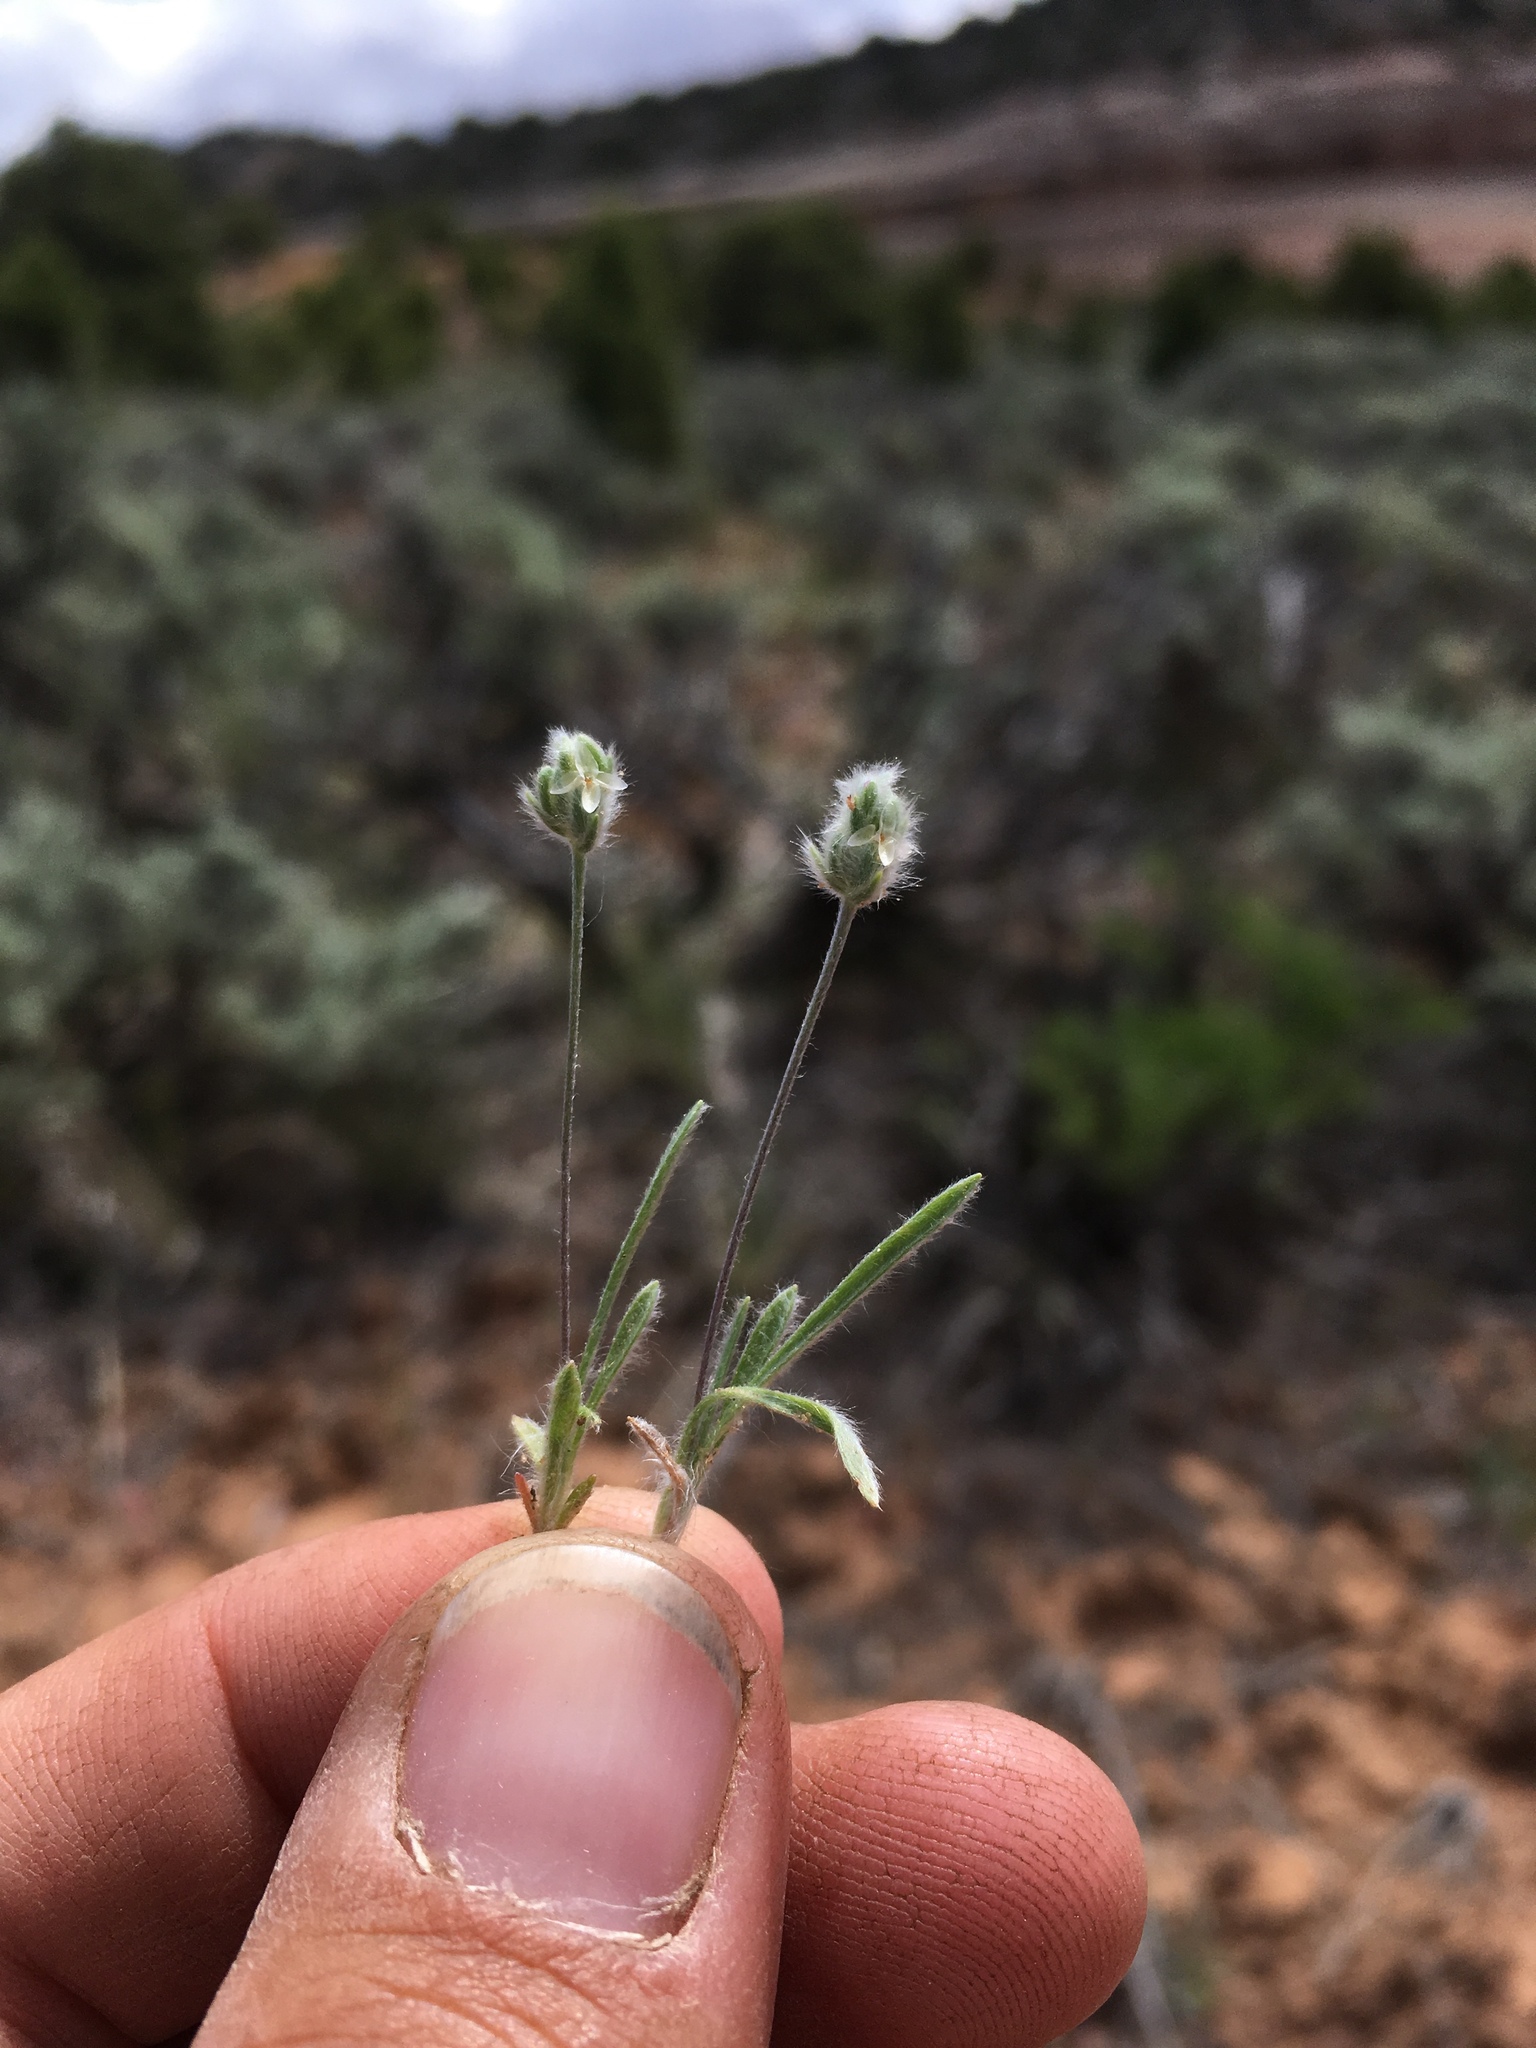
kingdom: Plantae
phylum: Tracheophyta
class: Magnoliopsida
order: Lamiales
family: Plantaginaceae
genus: Plantago
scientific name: Plantago patagonica
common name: Patagonia indian-wheat
